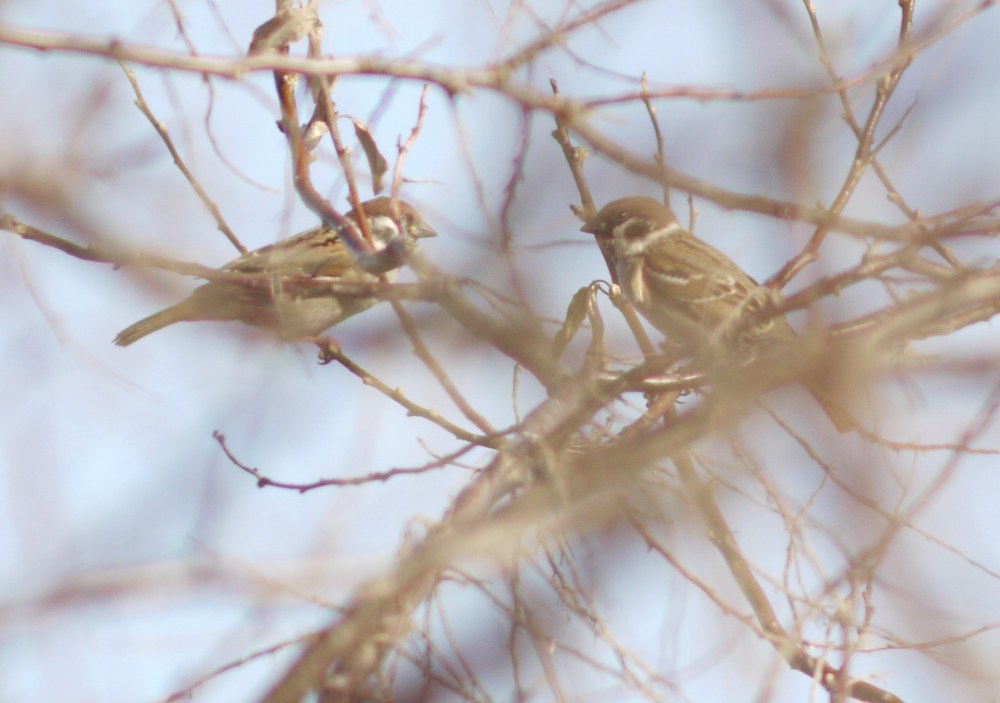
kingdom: Animalia
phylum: Chordata
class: Aves
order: Passeriformes
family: Passeridae
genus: Passer
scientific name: Passer montanus
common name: Eurasian tree sparrow
